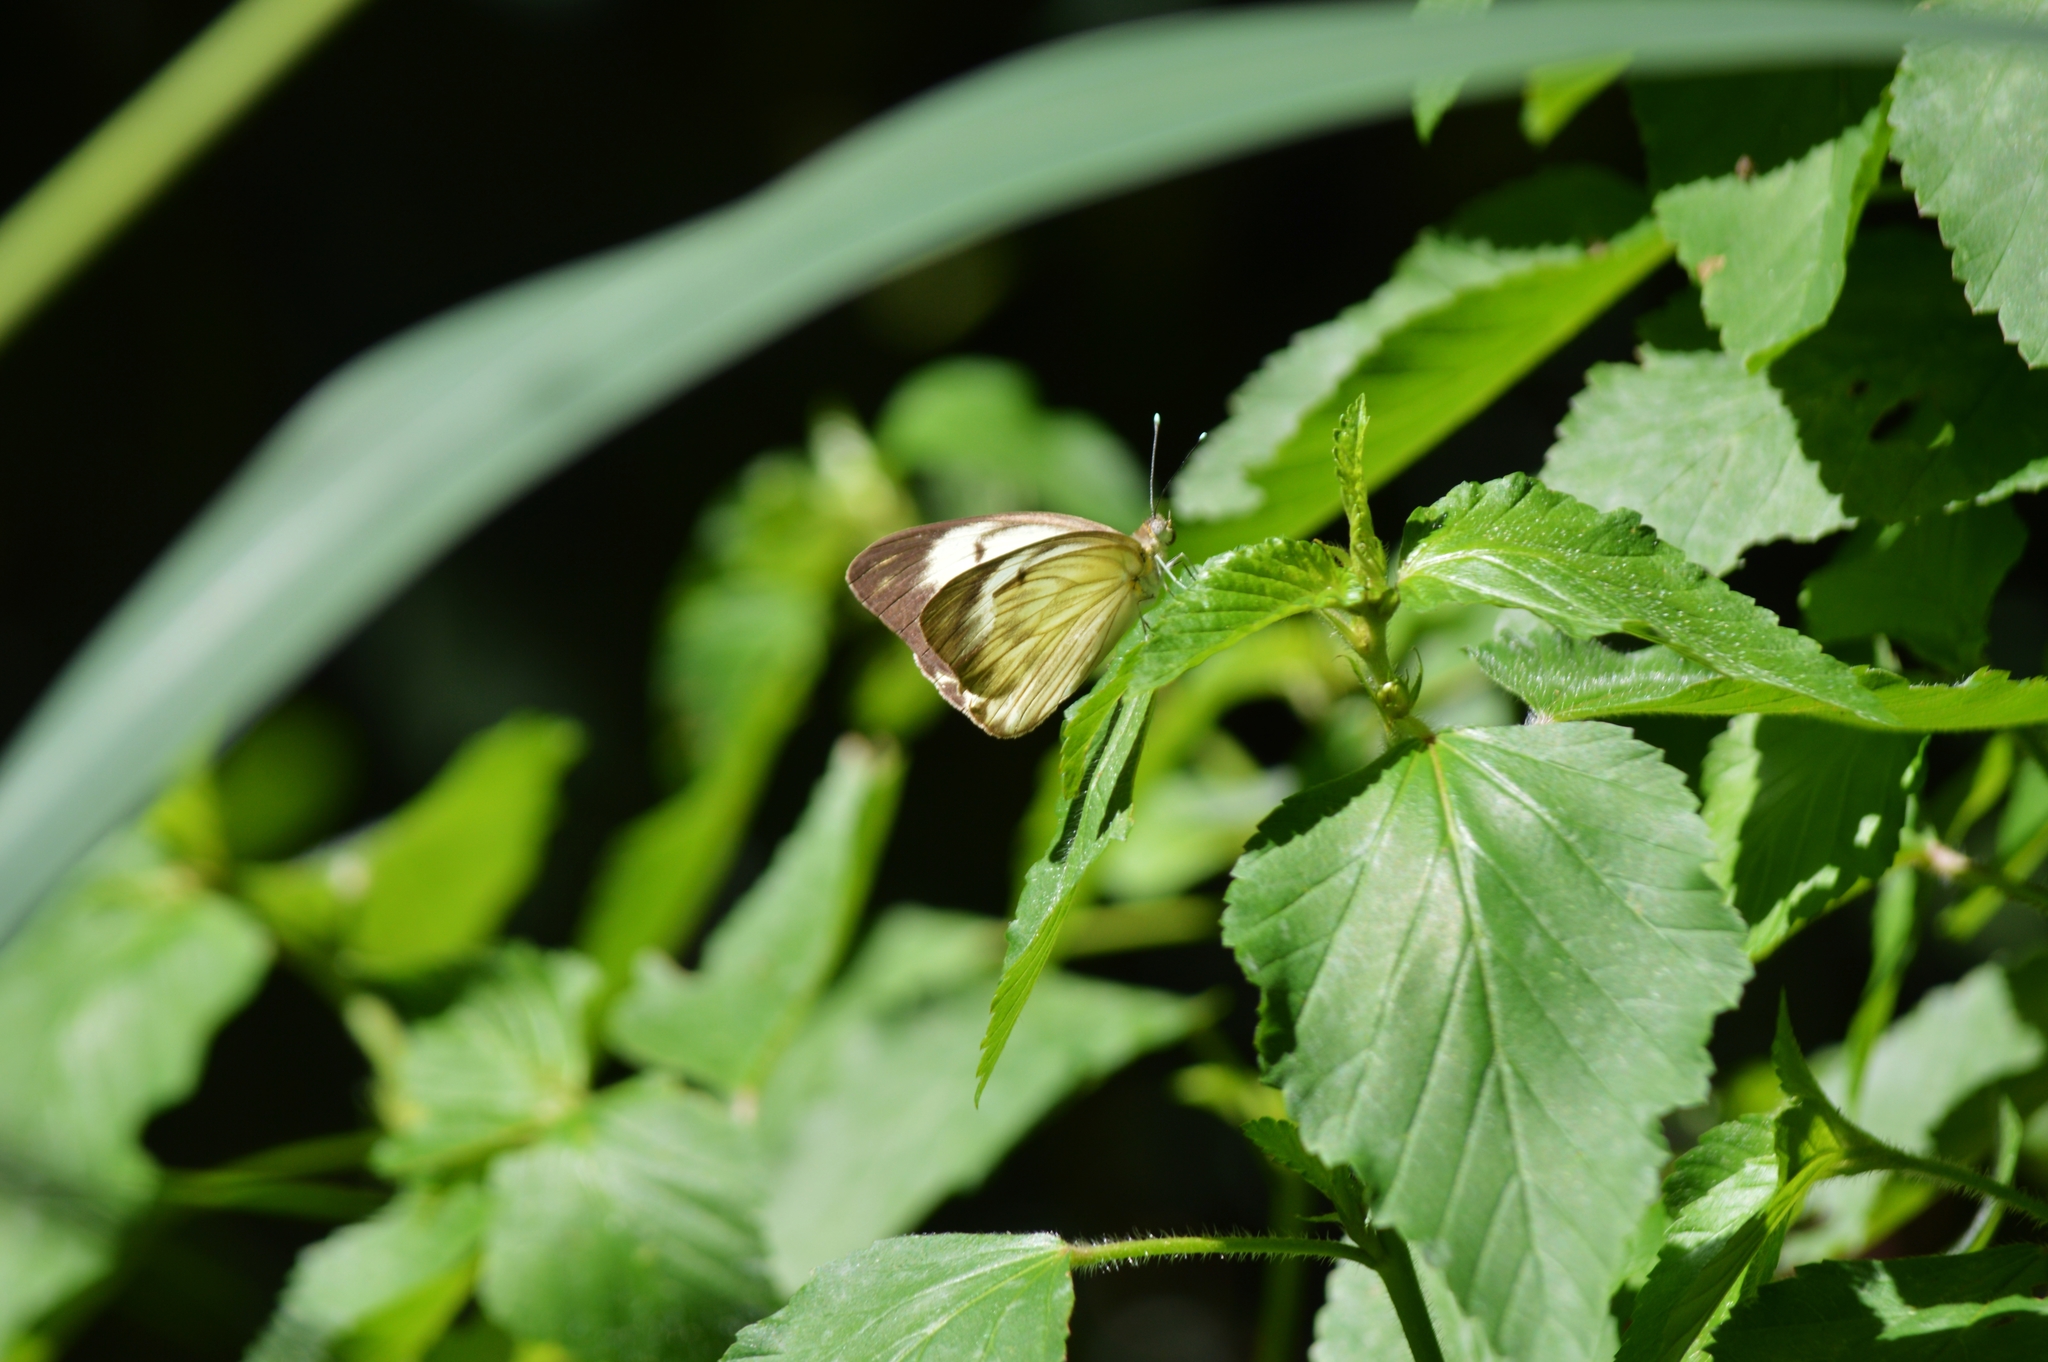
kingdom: Animalia
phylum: Arthropoda
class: Insecta
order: Lepidoptera
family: Pieridae
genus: Ascia
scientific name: Ascia monuste
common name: Great southern white
